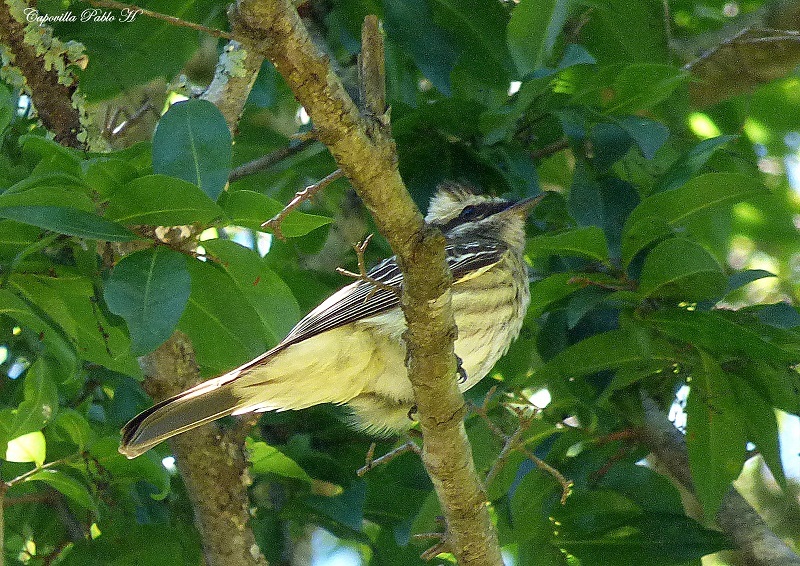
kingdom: Animalia
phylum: Chordata
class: Aves
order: Passeriformes
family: Tyrannidae
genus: Legatus
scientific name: Legatus leucophaius
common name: Piratic flycatcher
